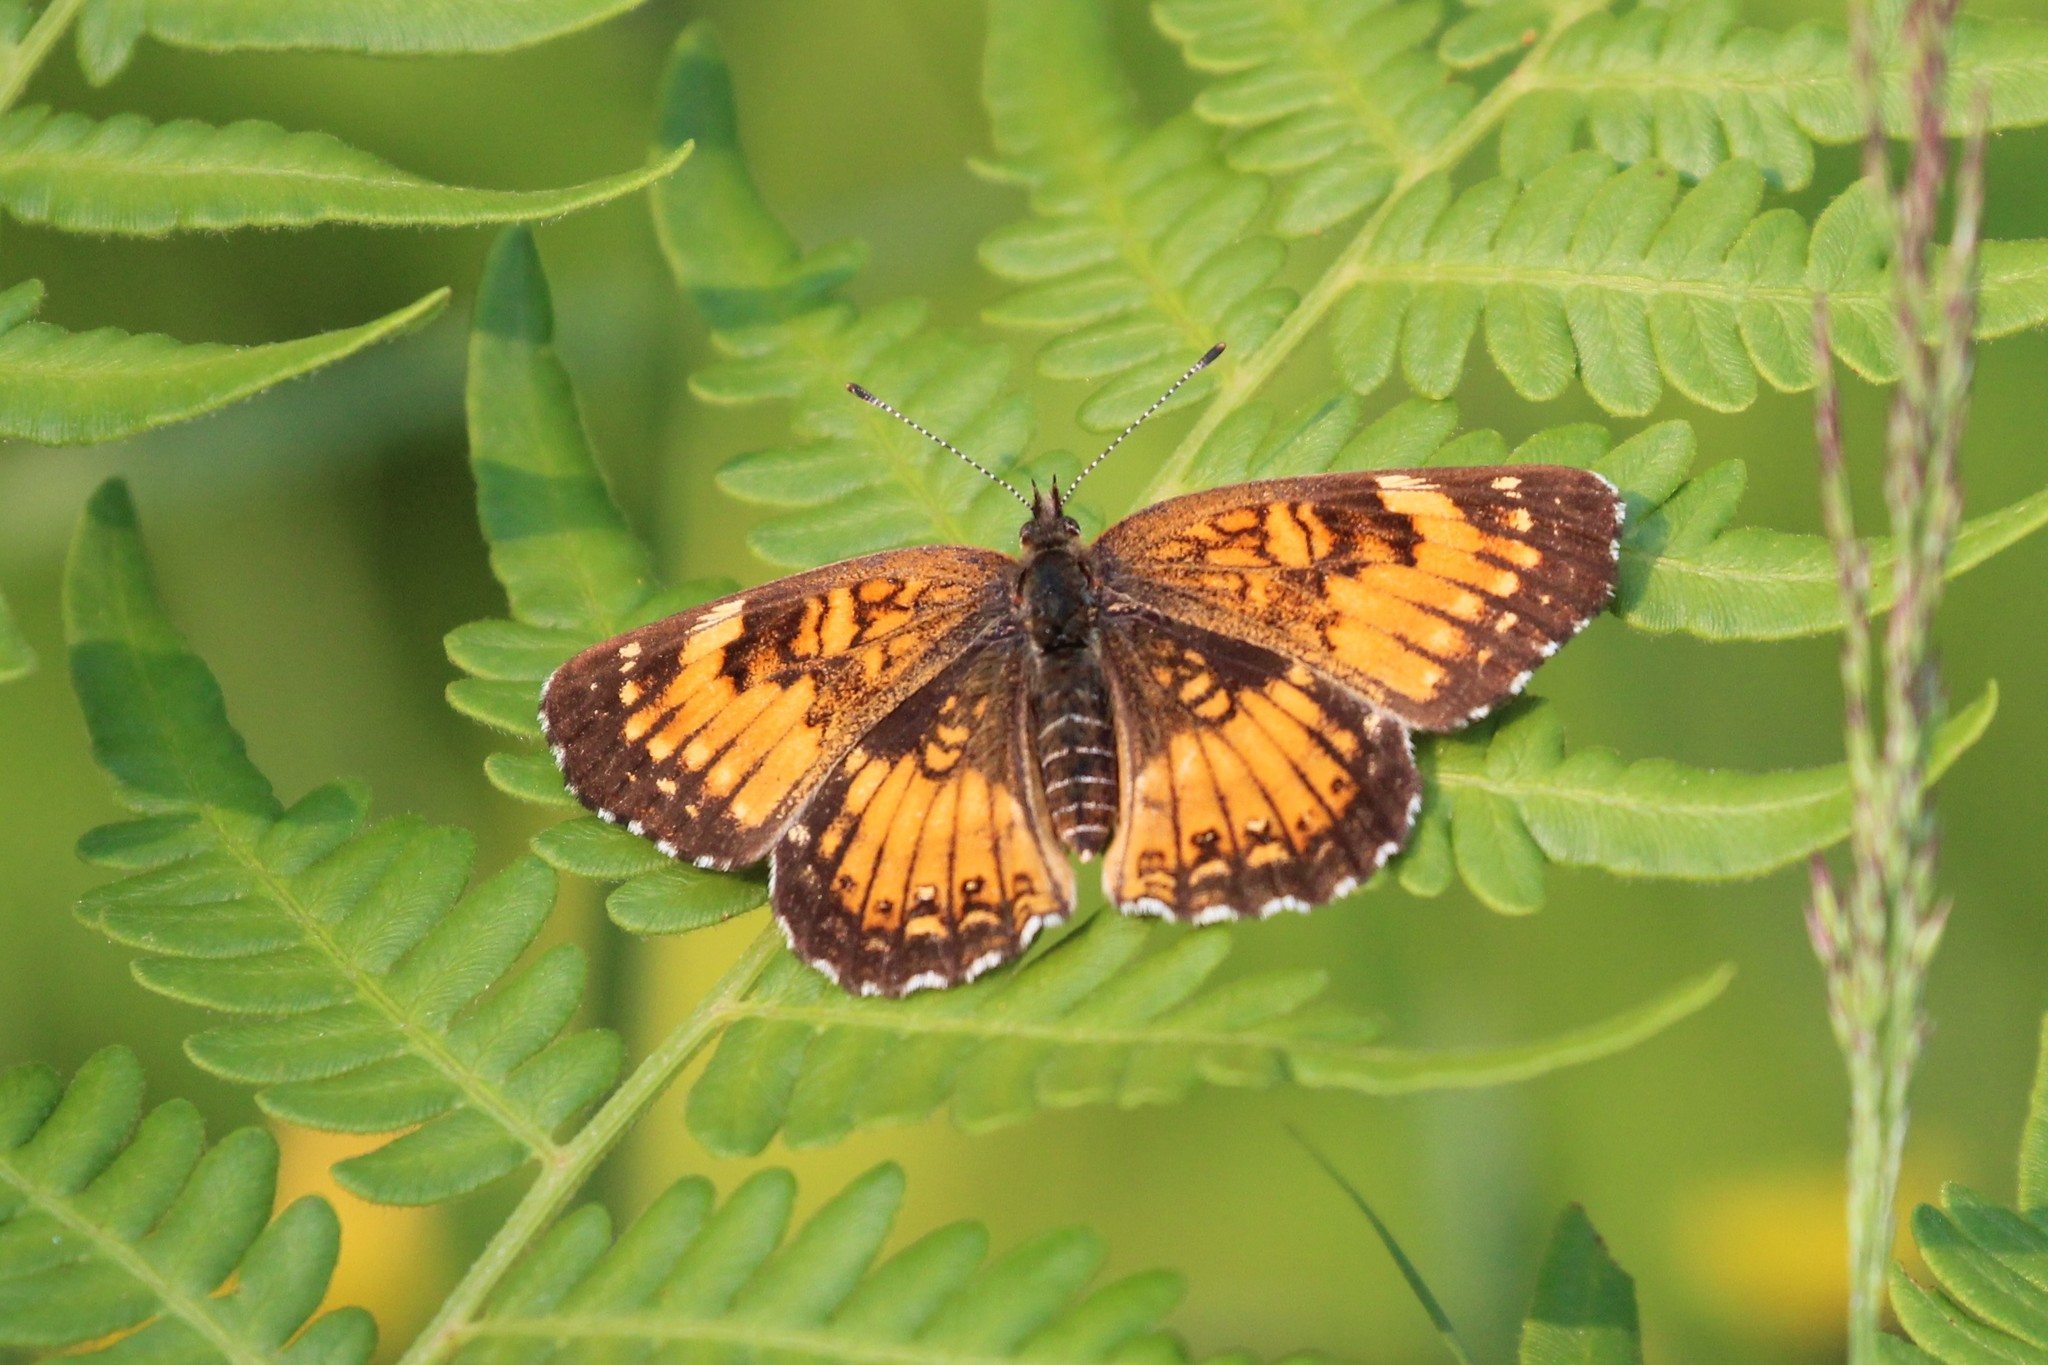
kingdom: Animalia
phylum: Arthropoda
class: Insecta
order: Lepidoptera
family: Nymphalidae
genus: Chlosyne
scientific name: Chlosyne harrisii
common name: Harris's checkerspot
